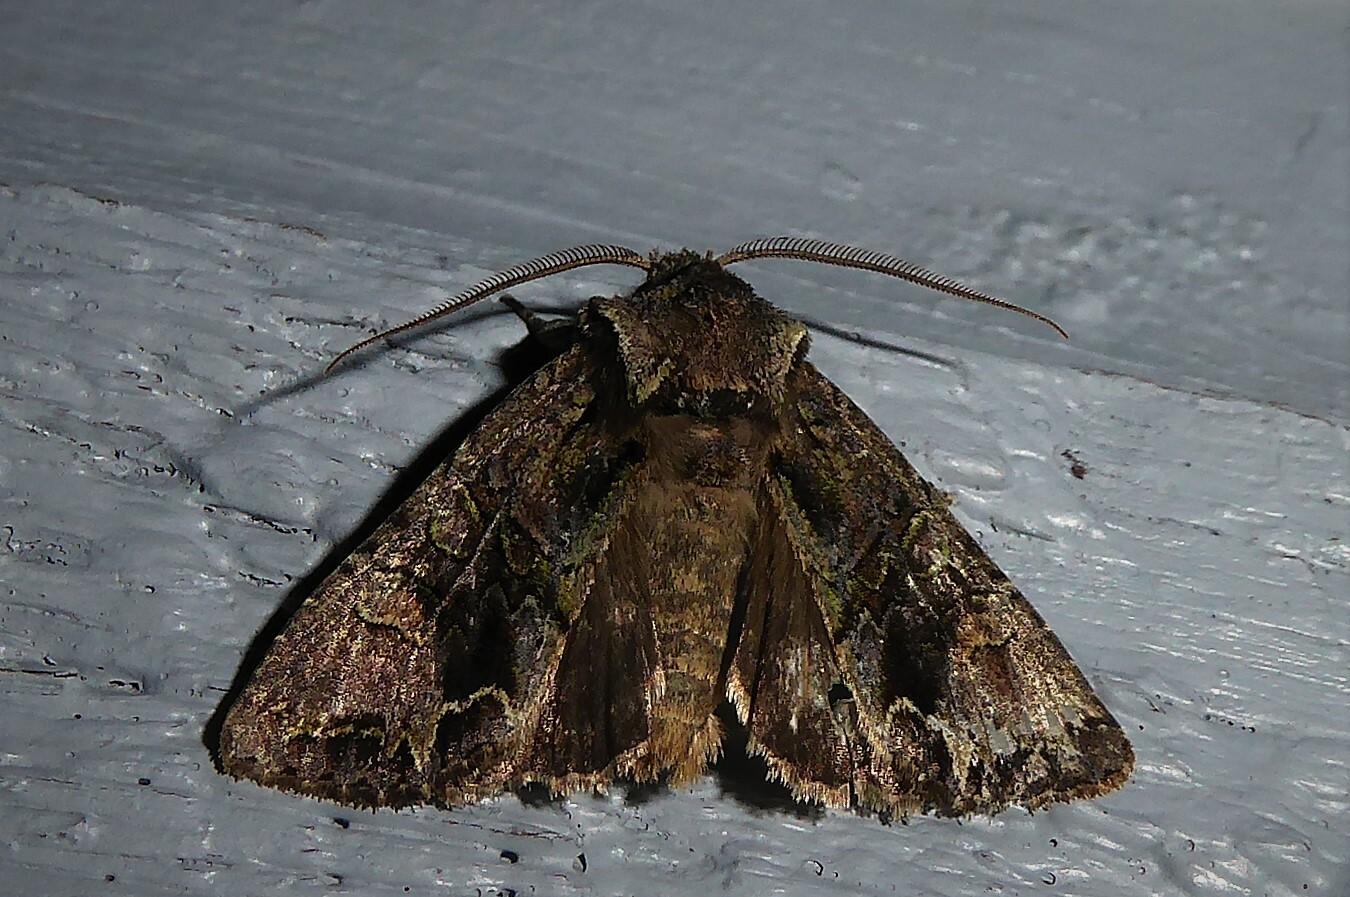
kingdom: Animalia
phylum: Arthropoda
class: Insecta
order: Lepidoptera
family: Noctuidae
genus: Ichneutica
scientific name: Ichneutica insignis
